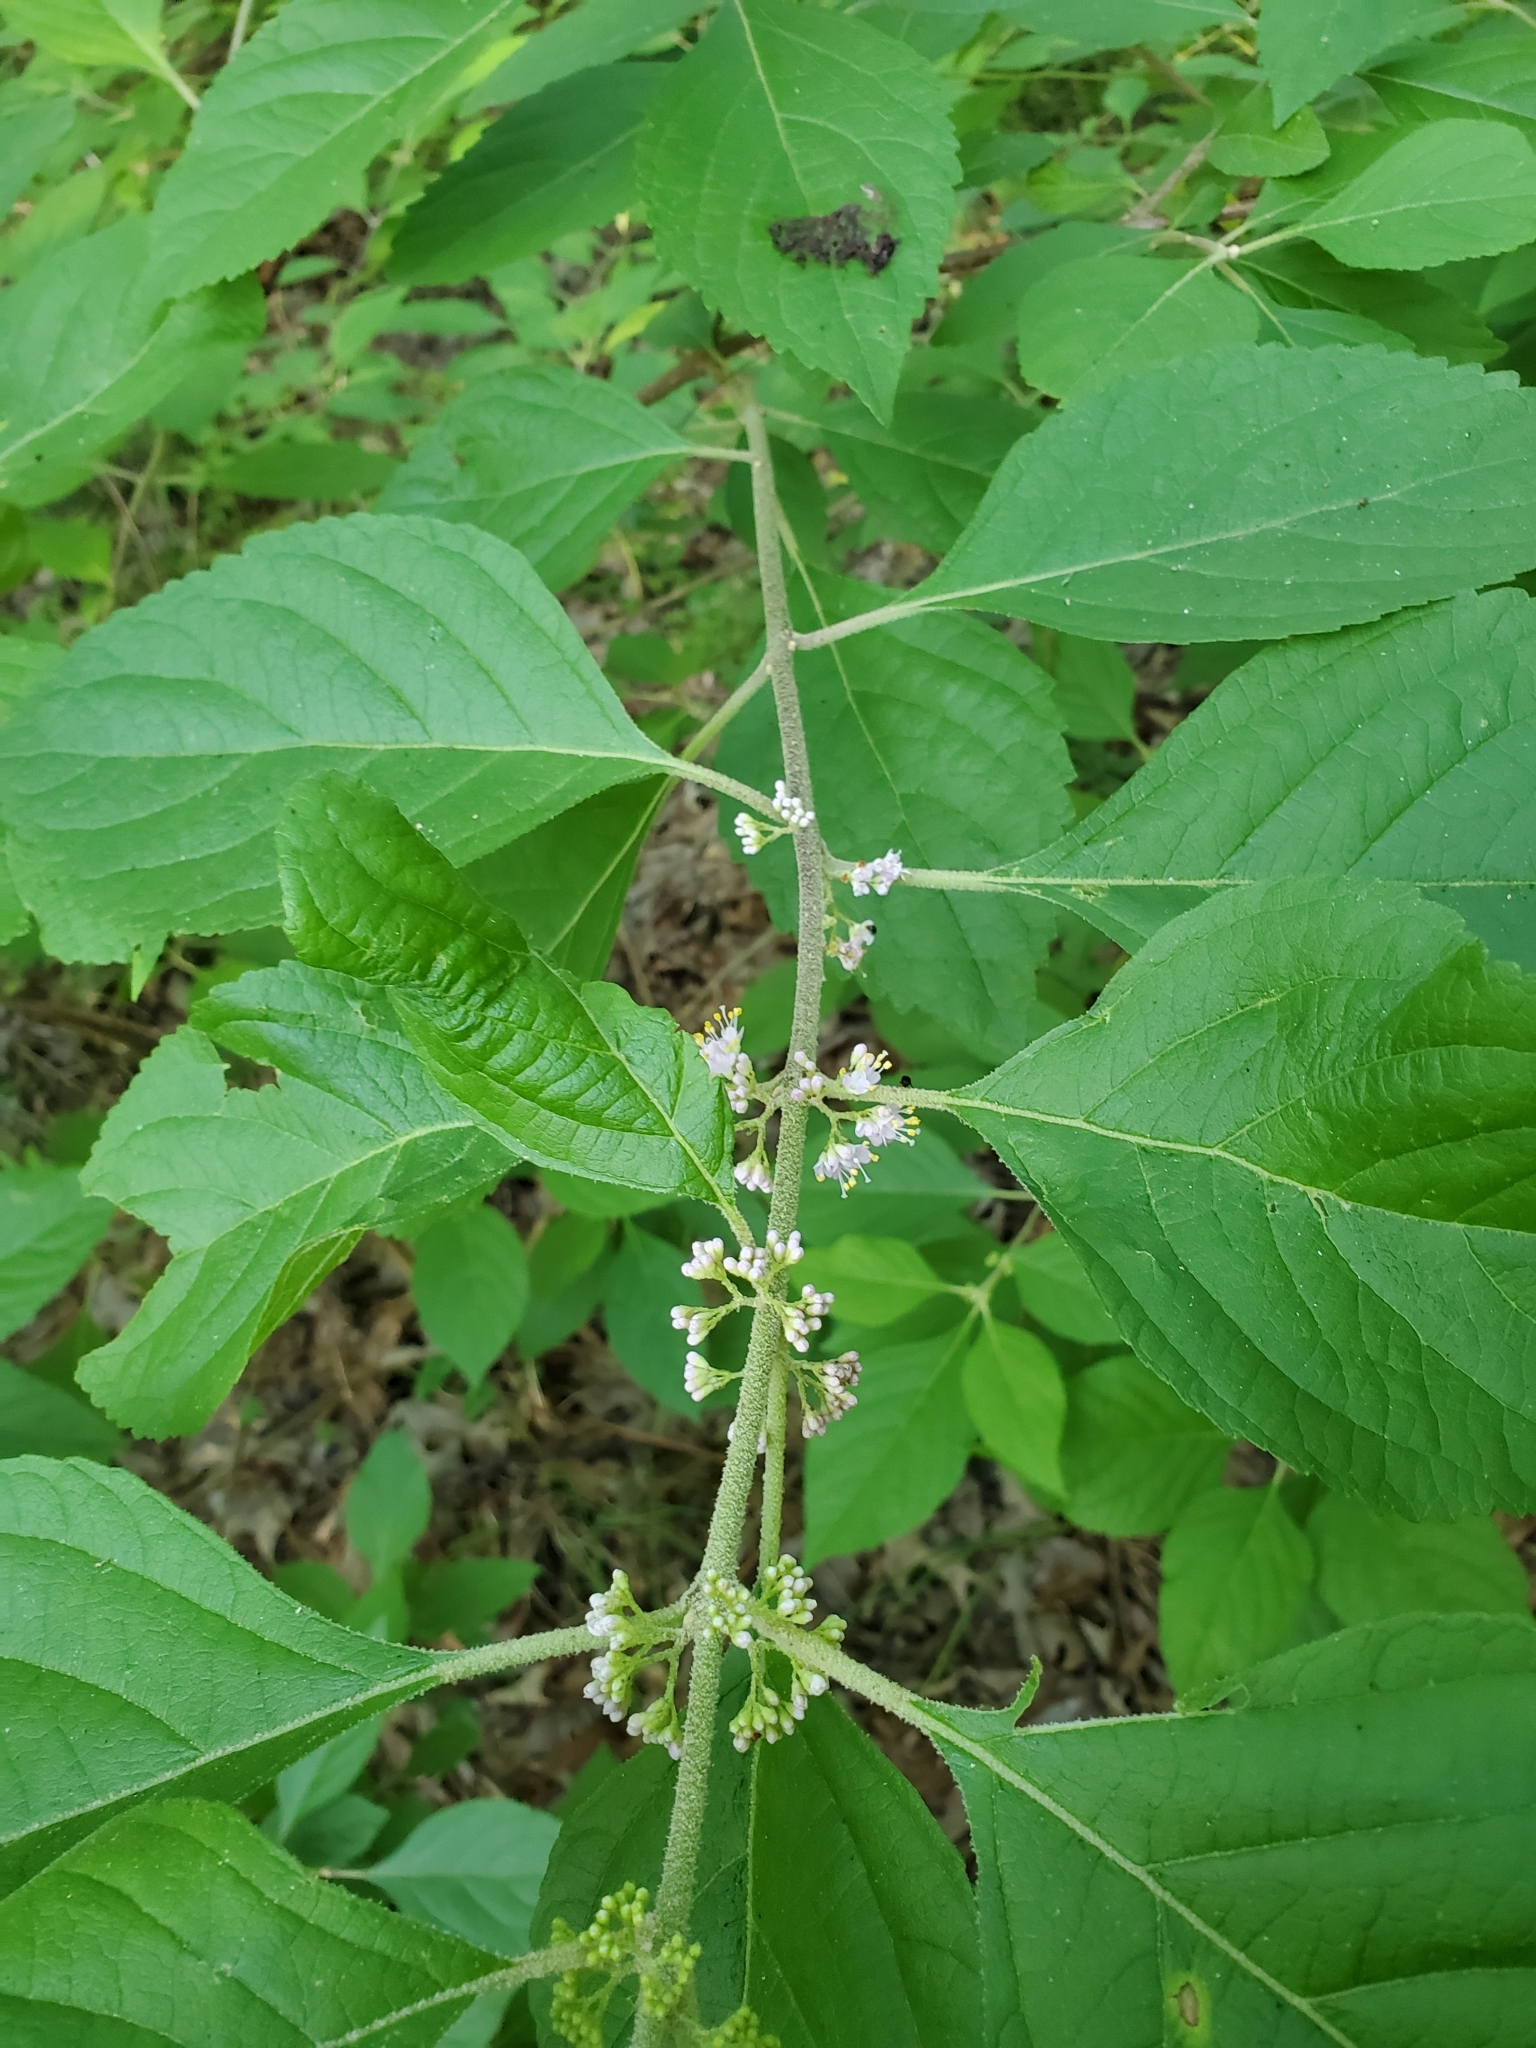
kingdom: Plantae
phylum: Tracheophyta
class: Magnoliopsida
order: Lamiales
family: Lamiaceae
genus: Callicarpa
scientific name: Callicarpa americana
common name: American beautyberry
